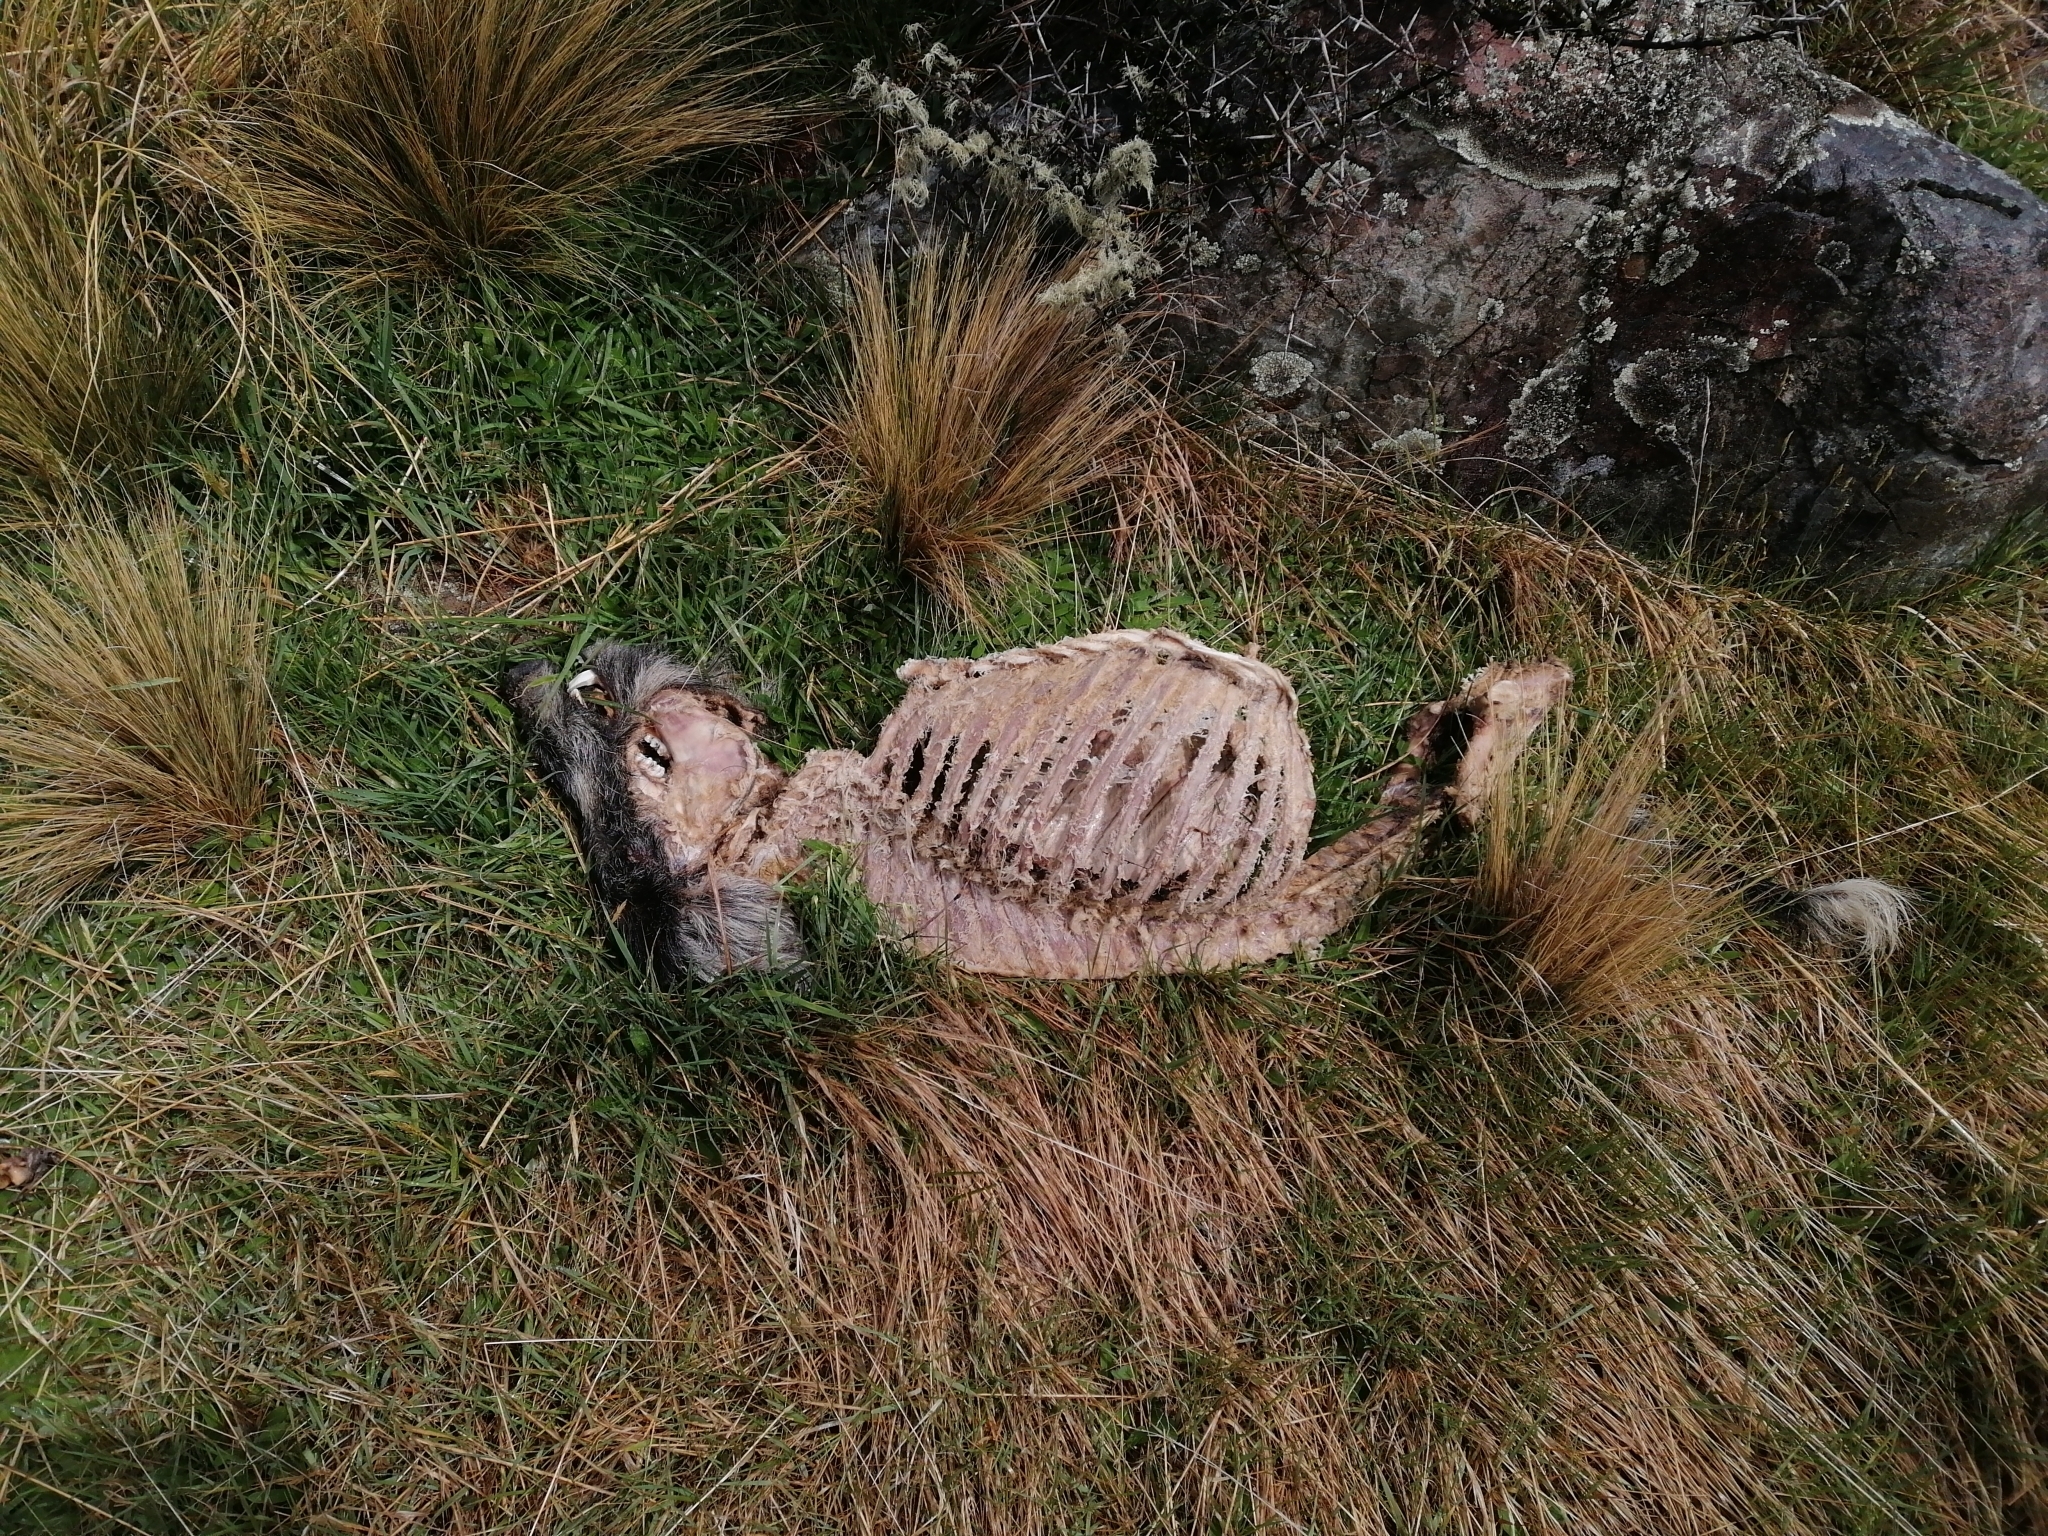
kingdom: Animalia
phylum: Chordata
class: Mammalia
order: Artiodactyla
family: Suidae
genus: Sus
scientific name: Sus scrofa
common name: Wild boar
